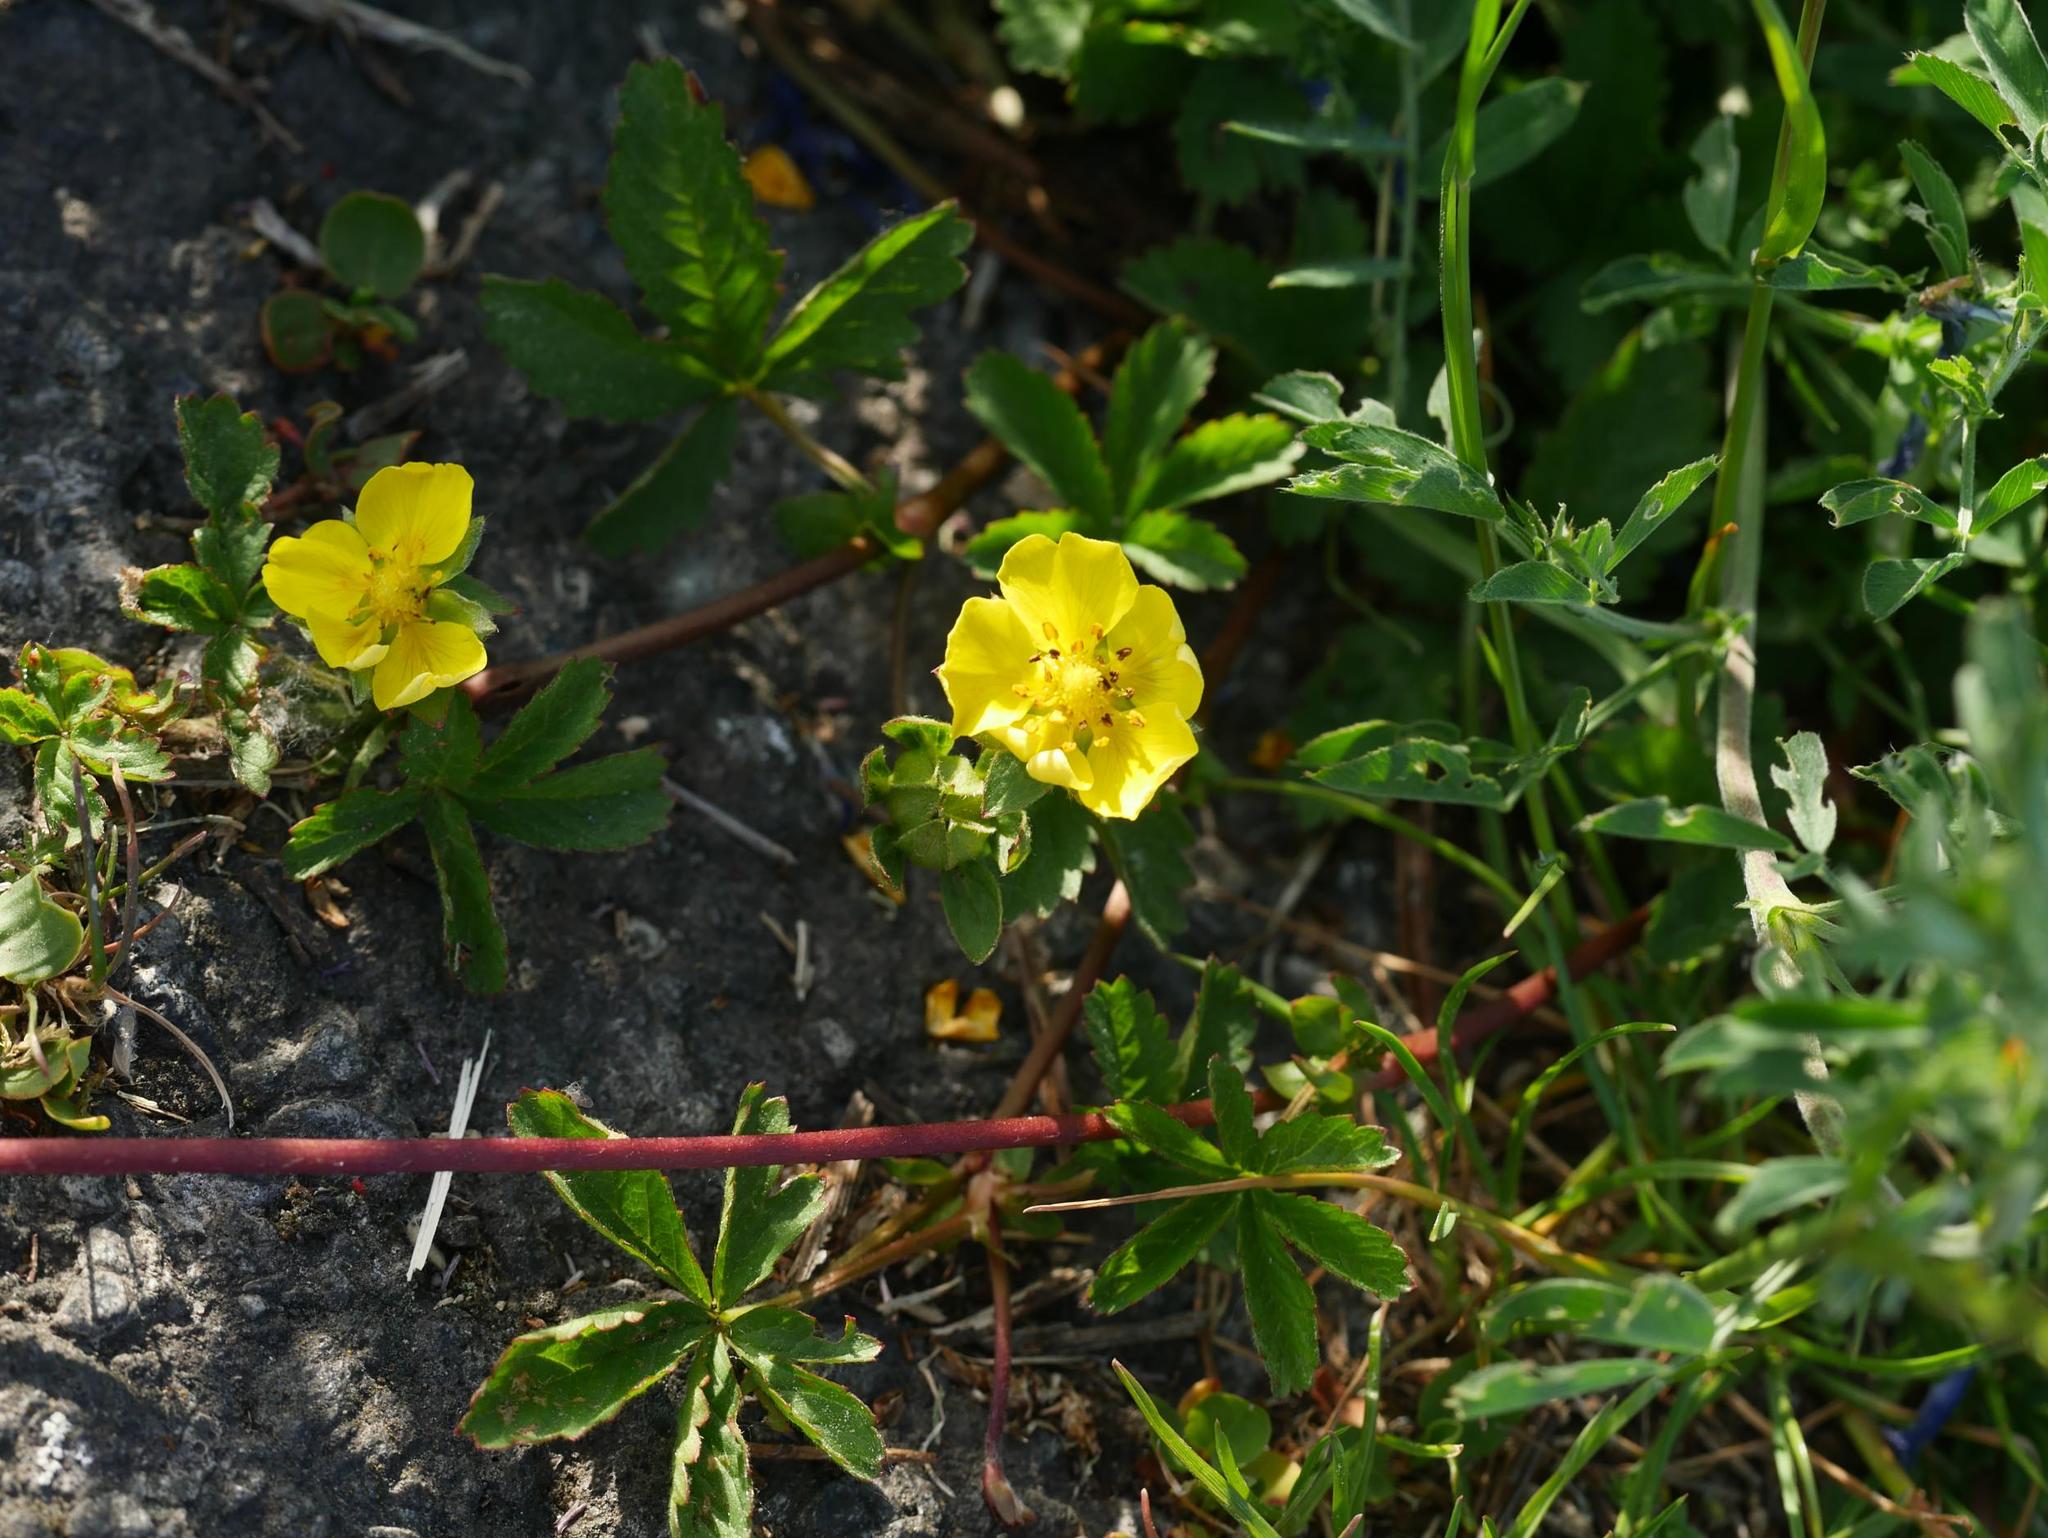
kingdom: Plantae
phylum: Tracheophyta
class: Magnoliopsida
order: Rosales
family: Rosaceae
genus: Potentilla
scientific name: Potentilla reptans
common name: Creeping cinquefoil
